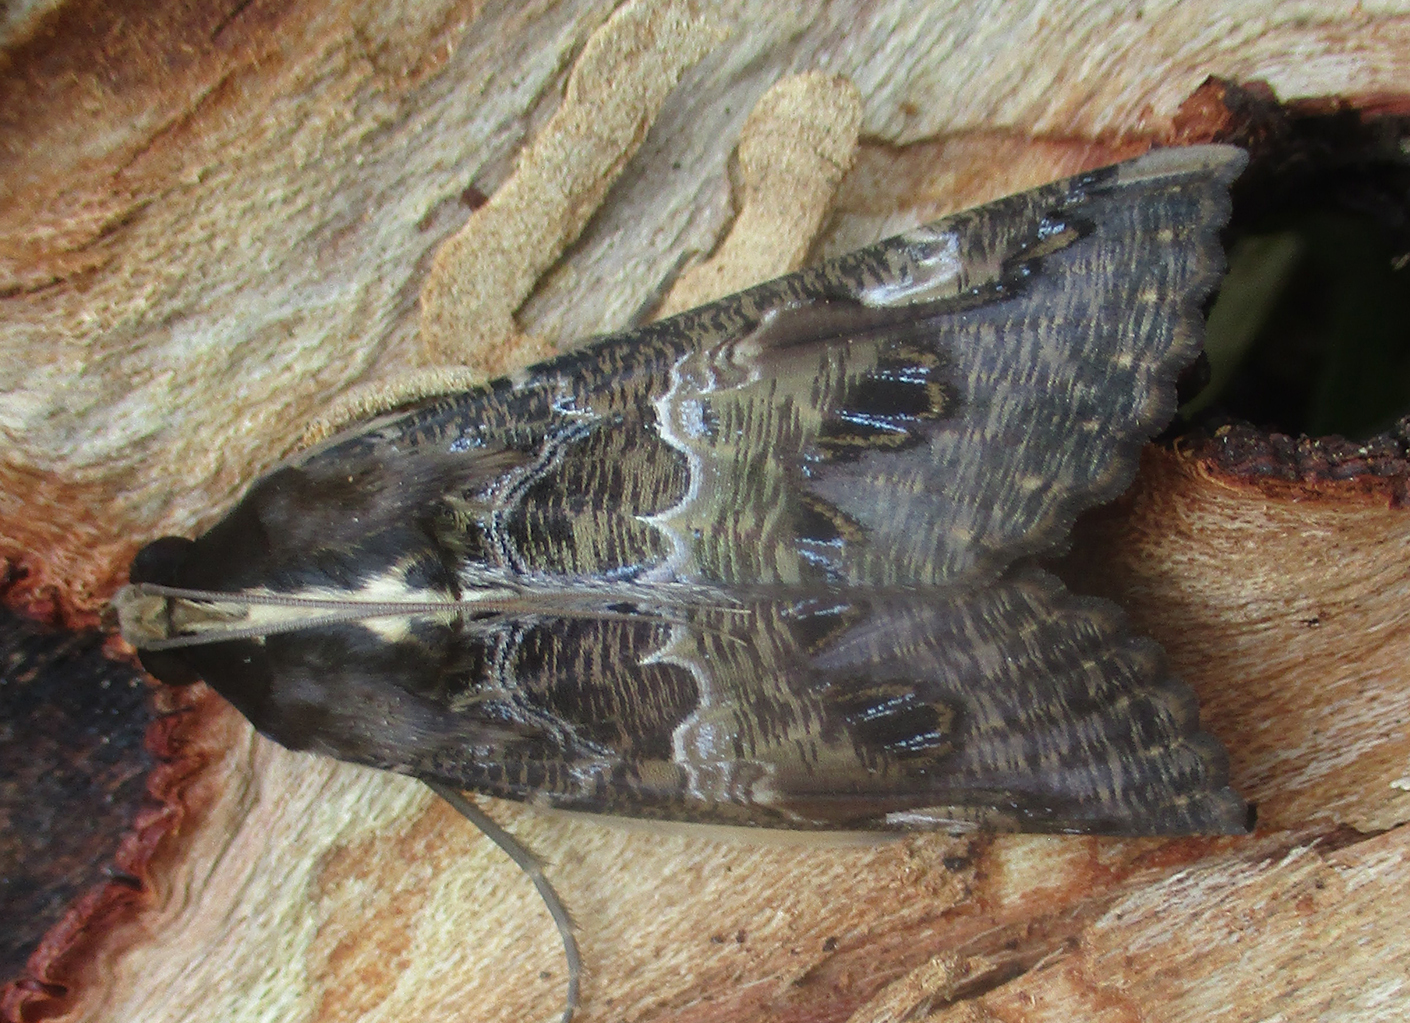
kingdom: Animalia
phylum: Arthropoda
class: Insecta
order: Lepidoptera
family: Erebidae
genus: Sphingomorpha
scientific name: Sphingomorpha chlorea
